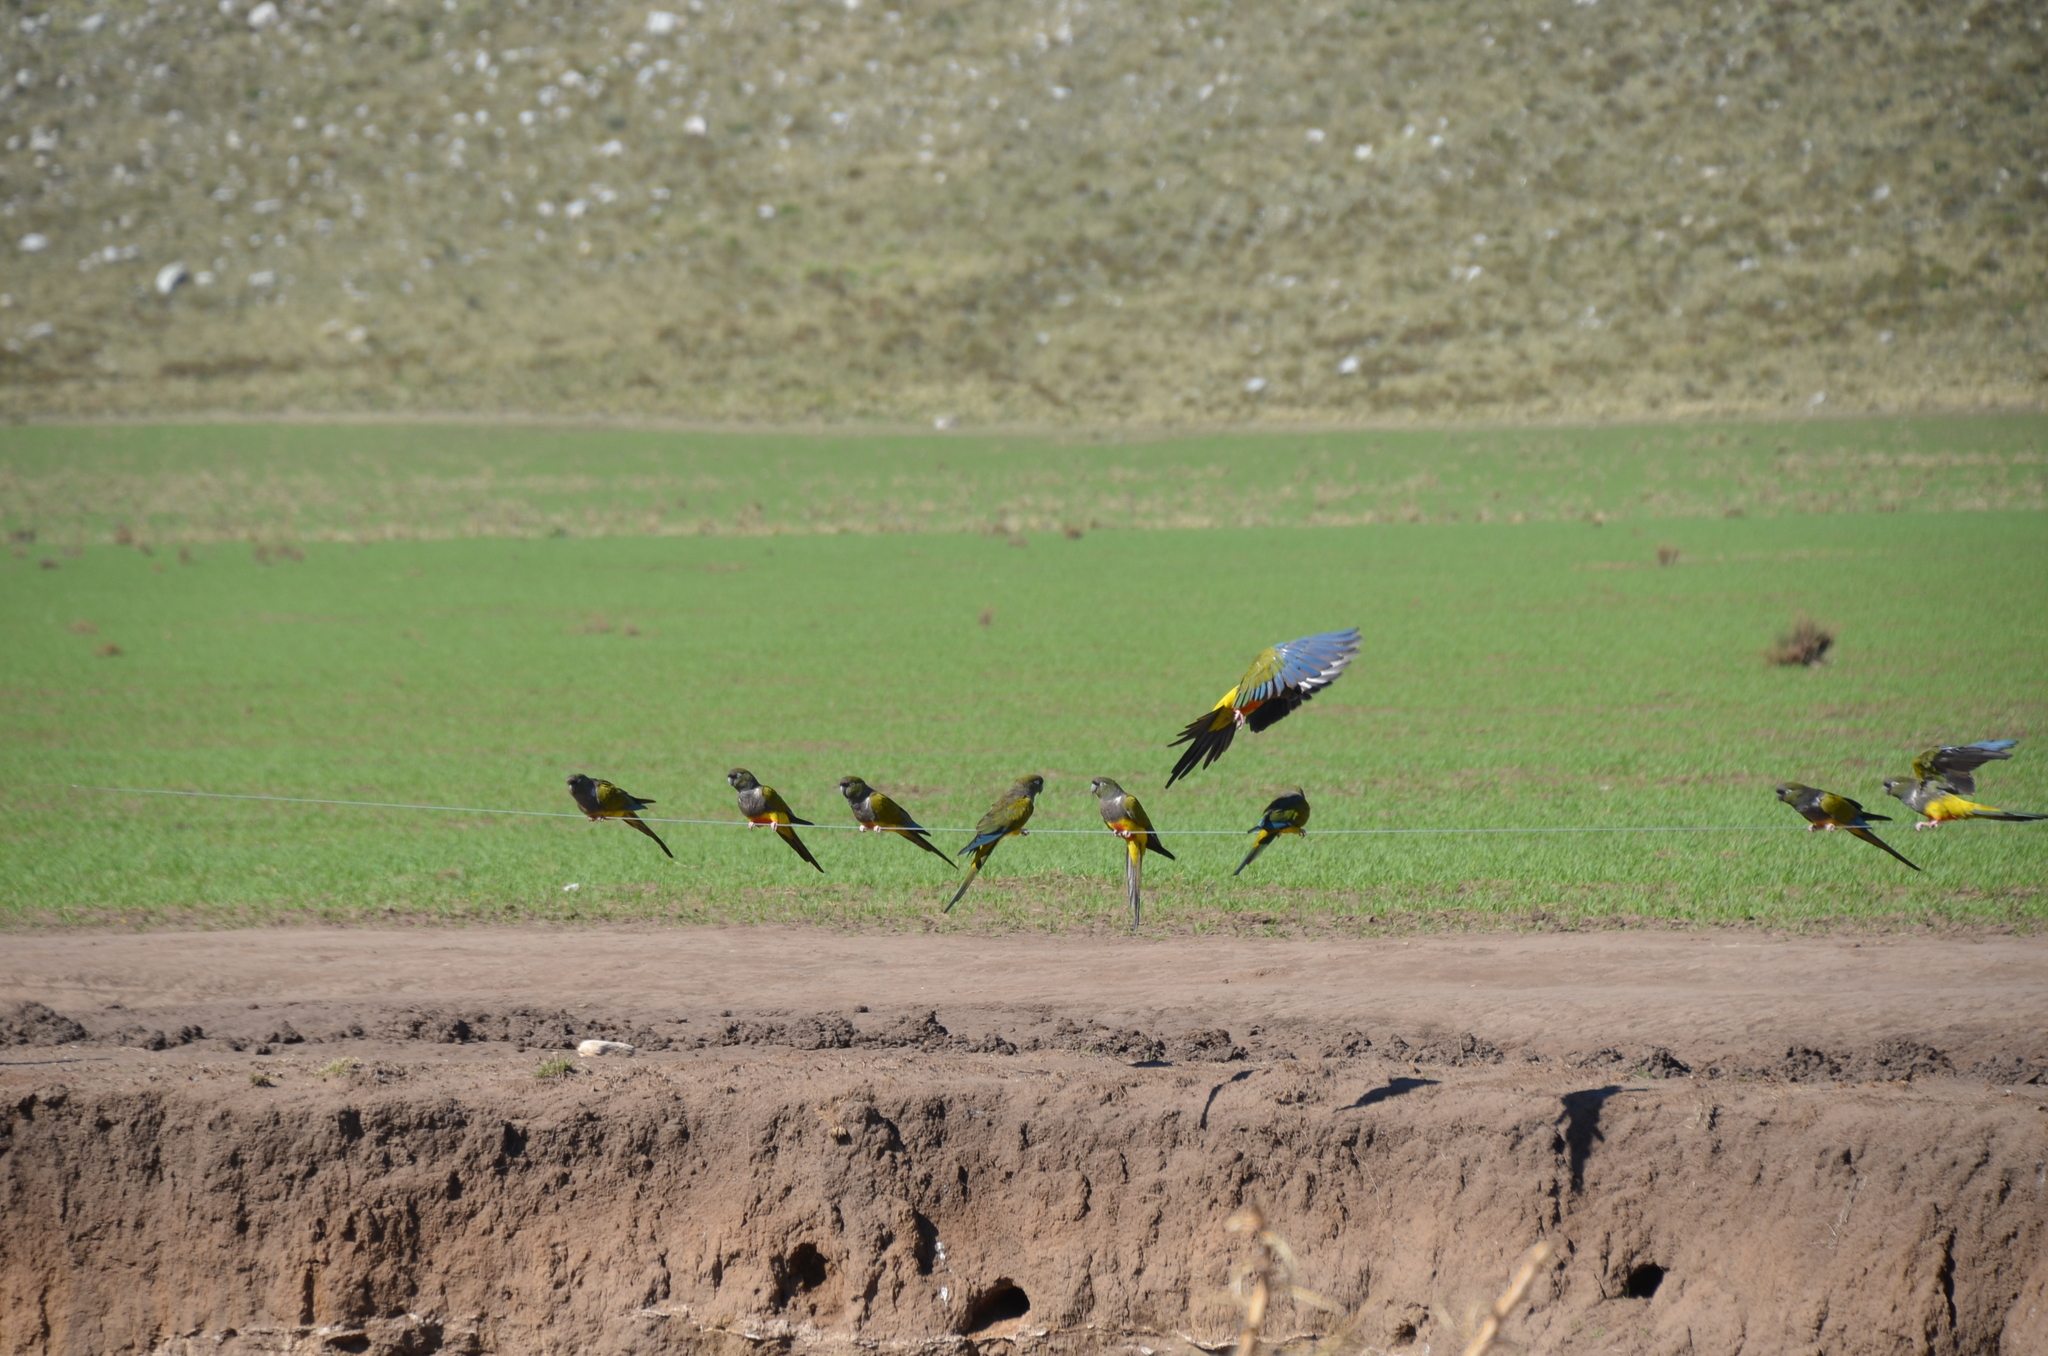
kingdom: Animalia
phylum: Chordata
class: Aves
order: Psittaciformes
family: Psittacidae
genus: Cyanoliseus
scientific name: Cyanoliseus patagonus
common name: Burrowing parrot
